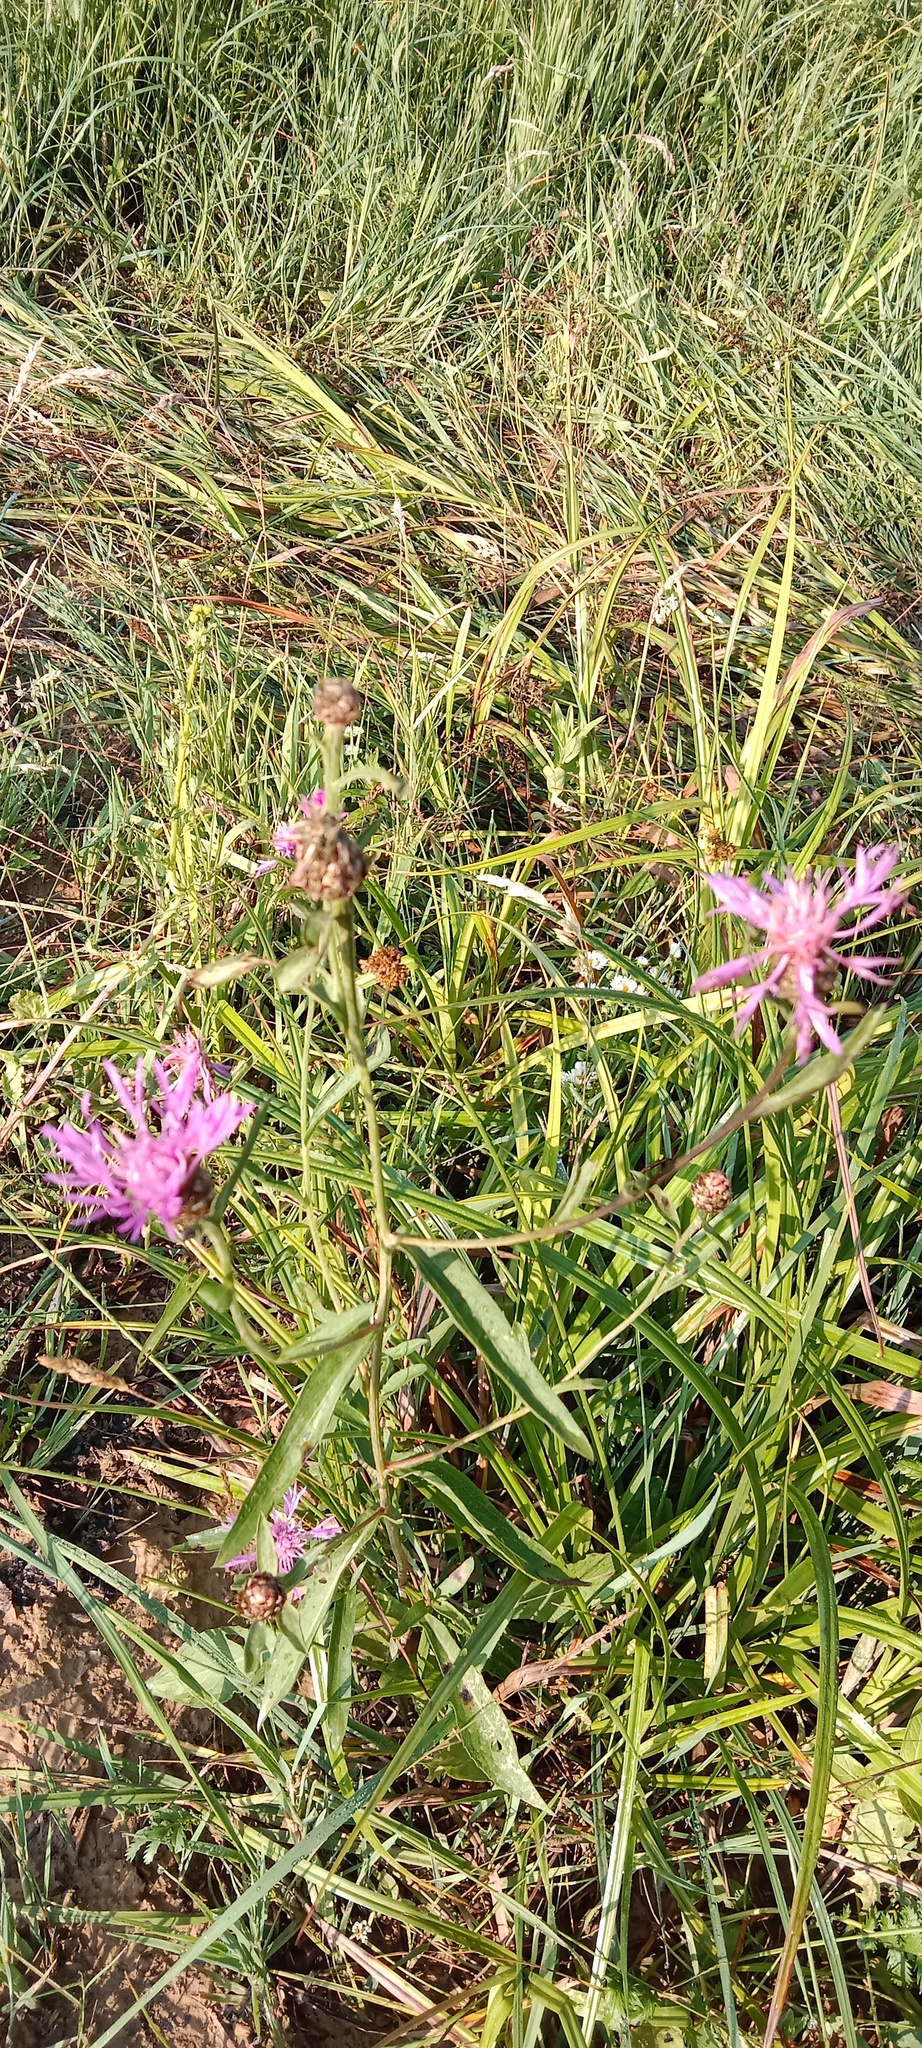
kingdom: Plantae
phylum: Tracheophyta
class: Magnoliopsida
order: Asterales
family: Asteraceae
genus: Centaurea
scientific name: Centaurea jacea
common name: Brown knapweed
